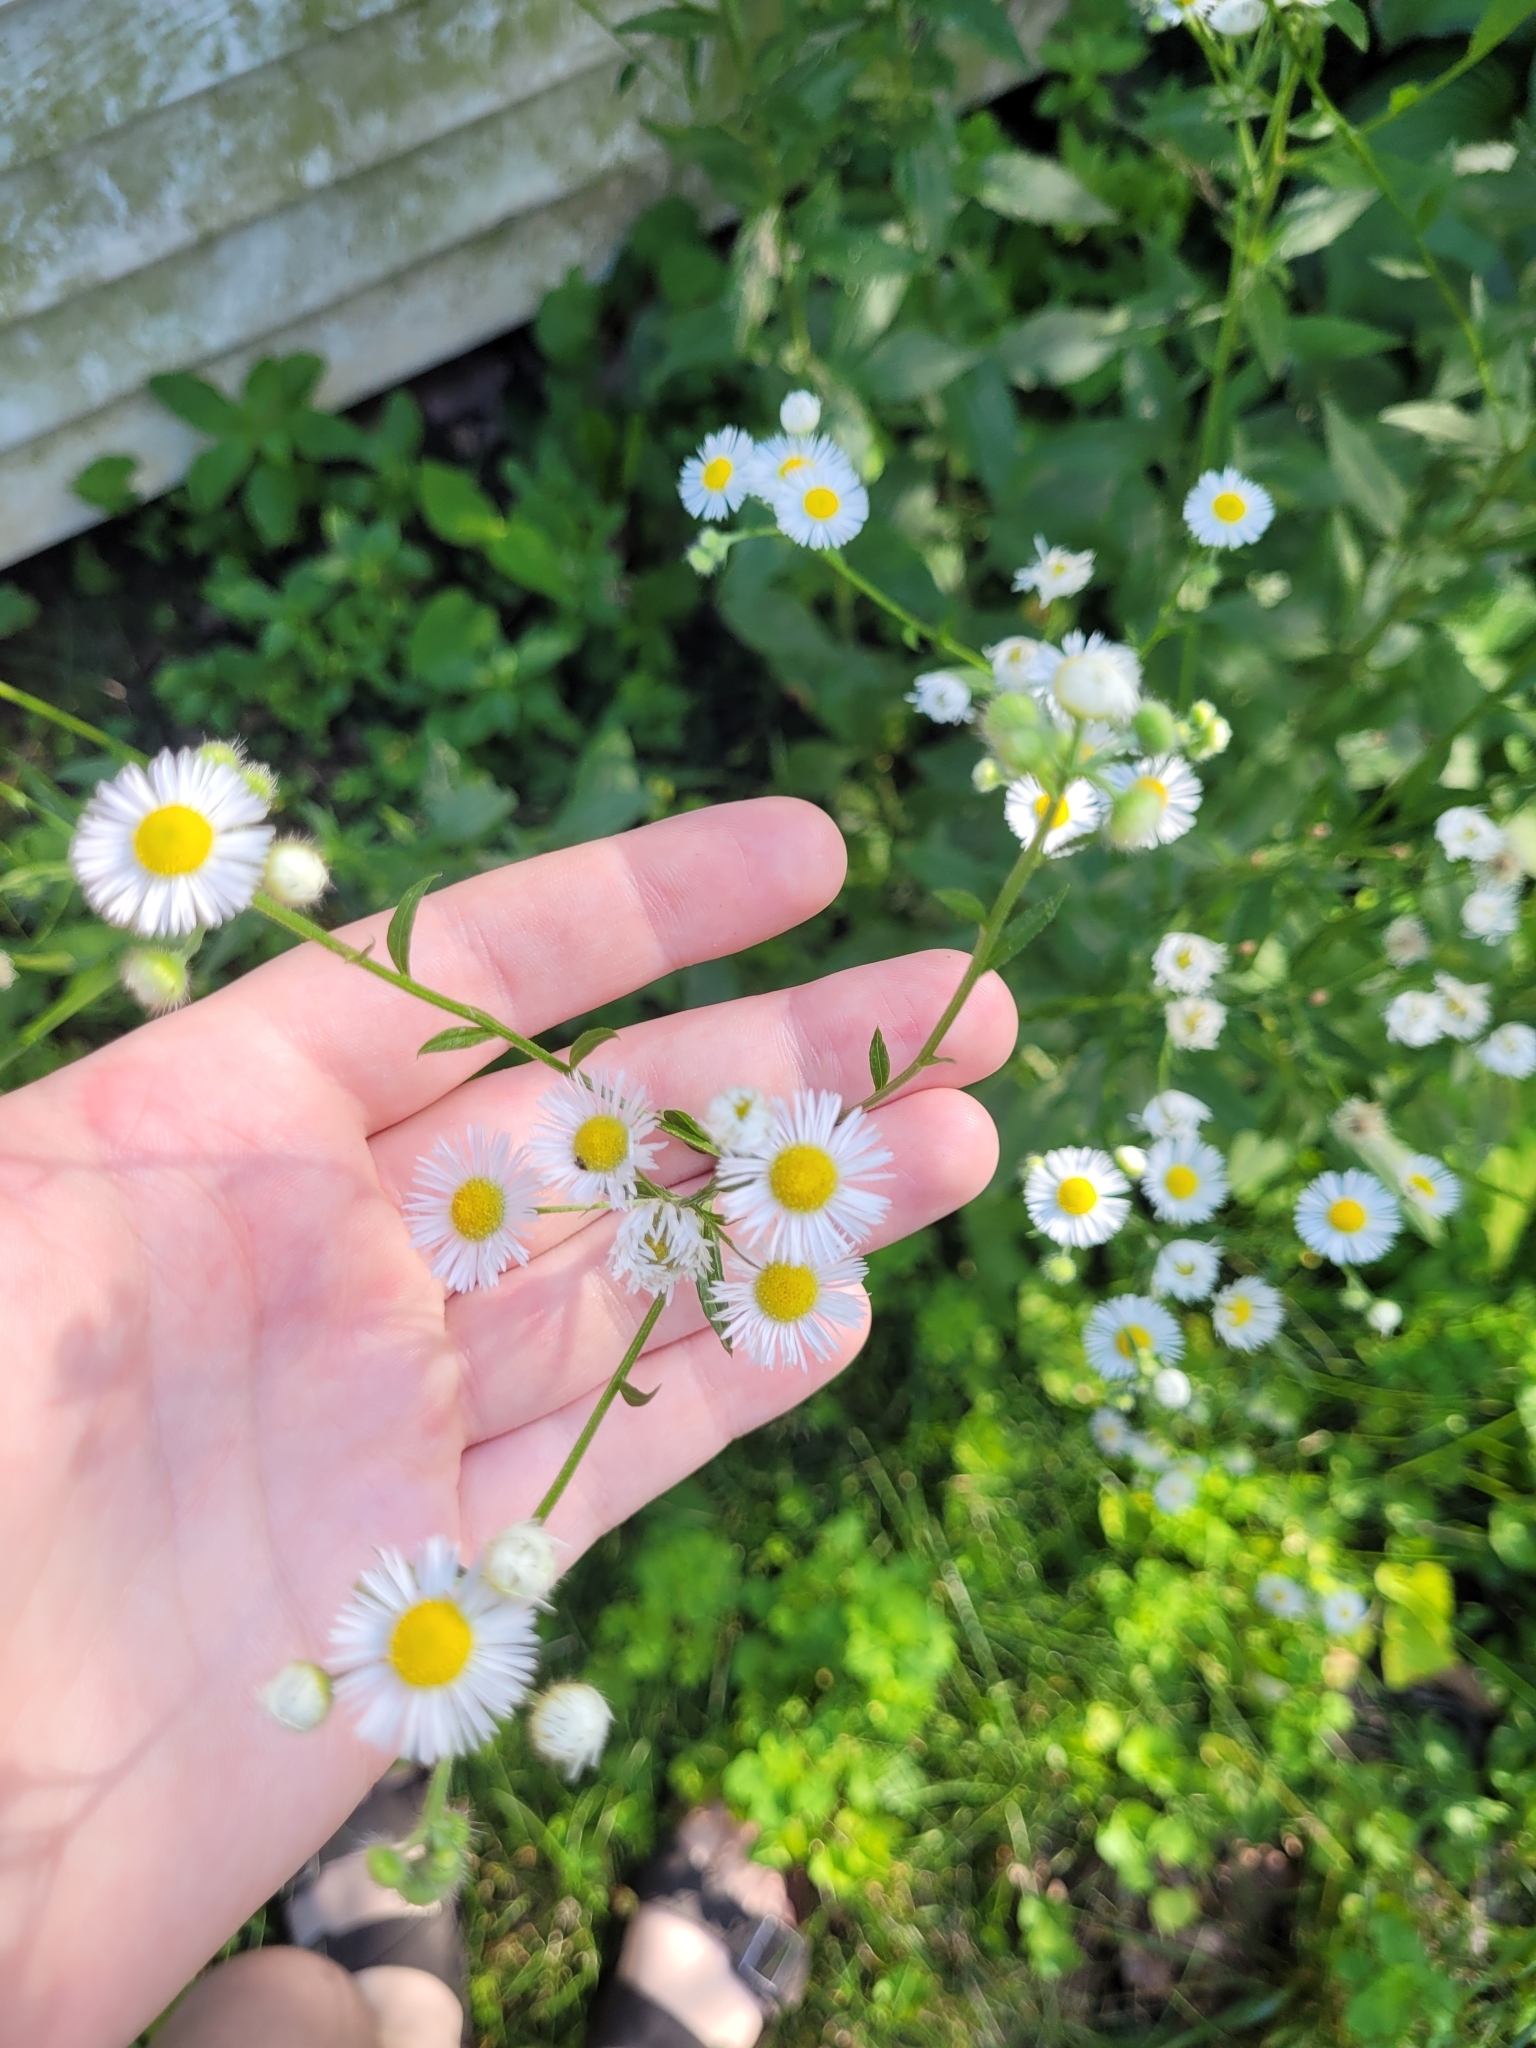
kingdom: Plantae
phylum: Tracheophyta
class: Magnoliopsida
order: Asterales
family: Asteraceae
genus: Erigeron
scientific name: Erigeron philadelphicus
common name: Robin's-plantain
